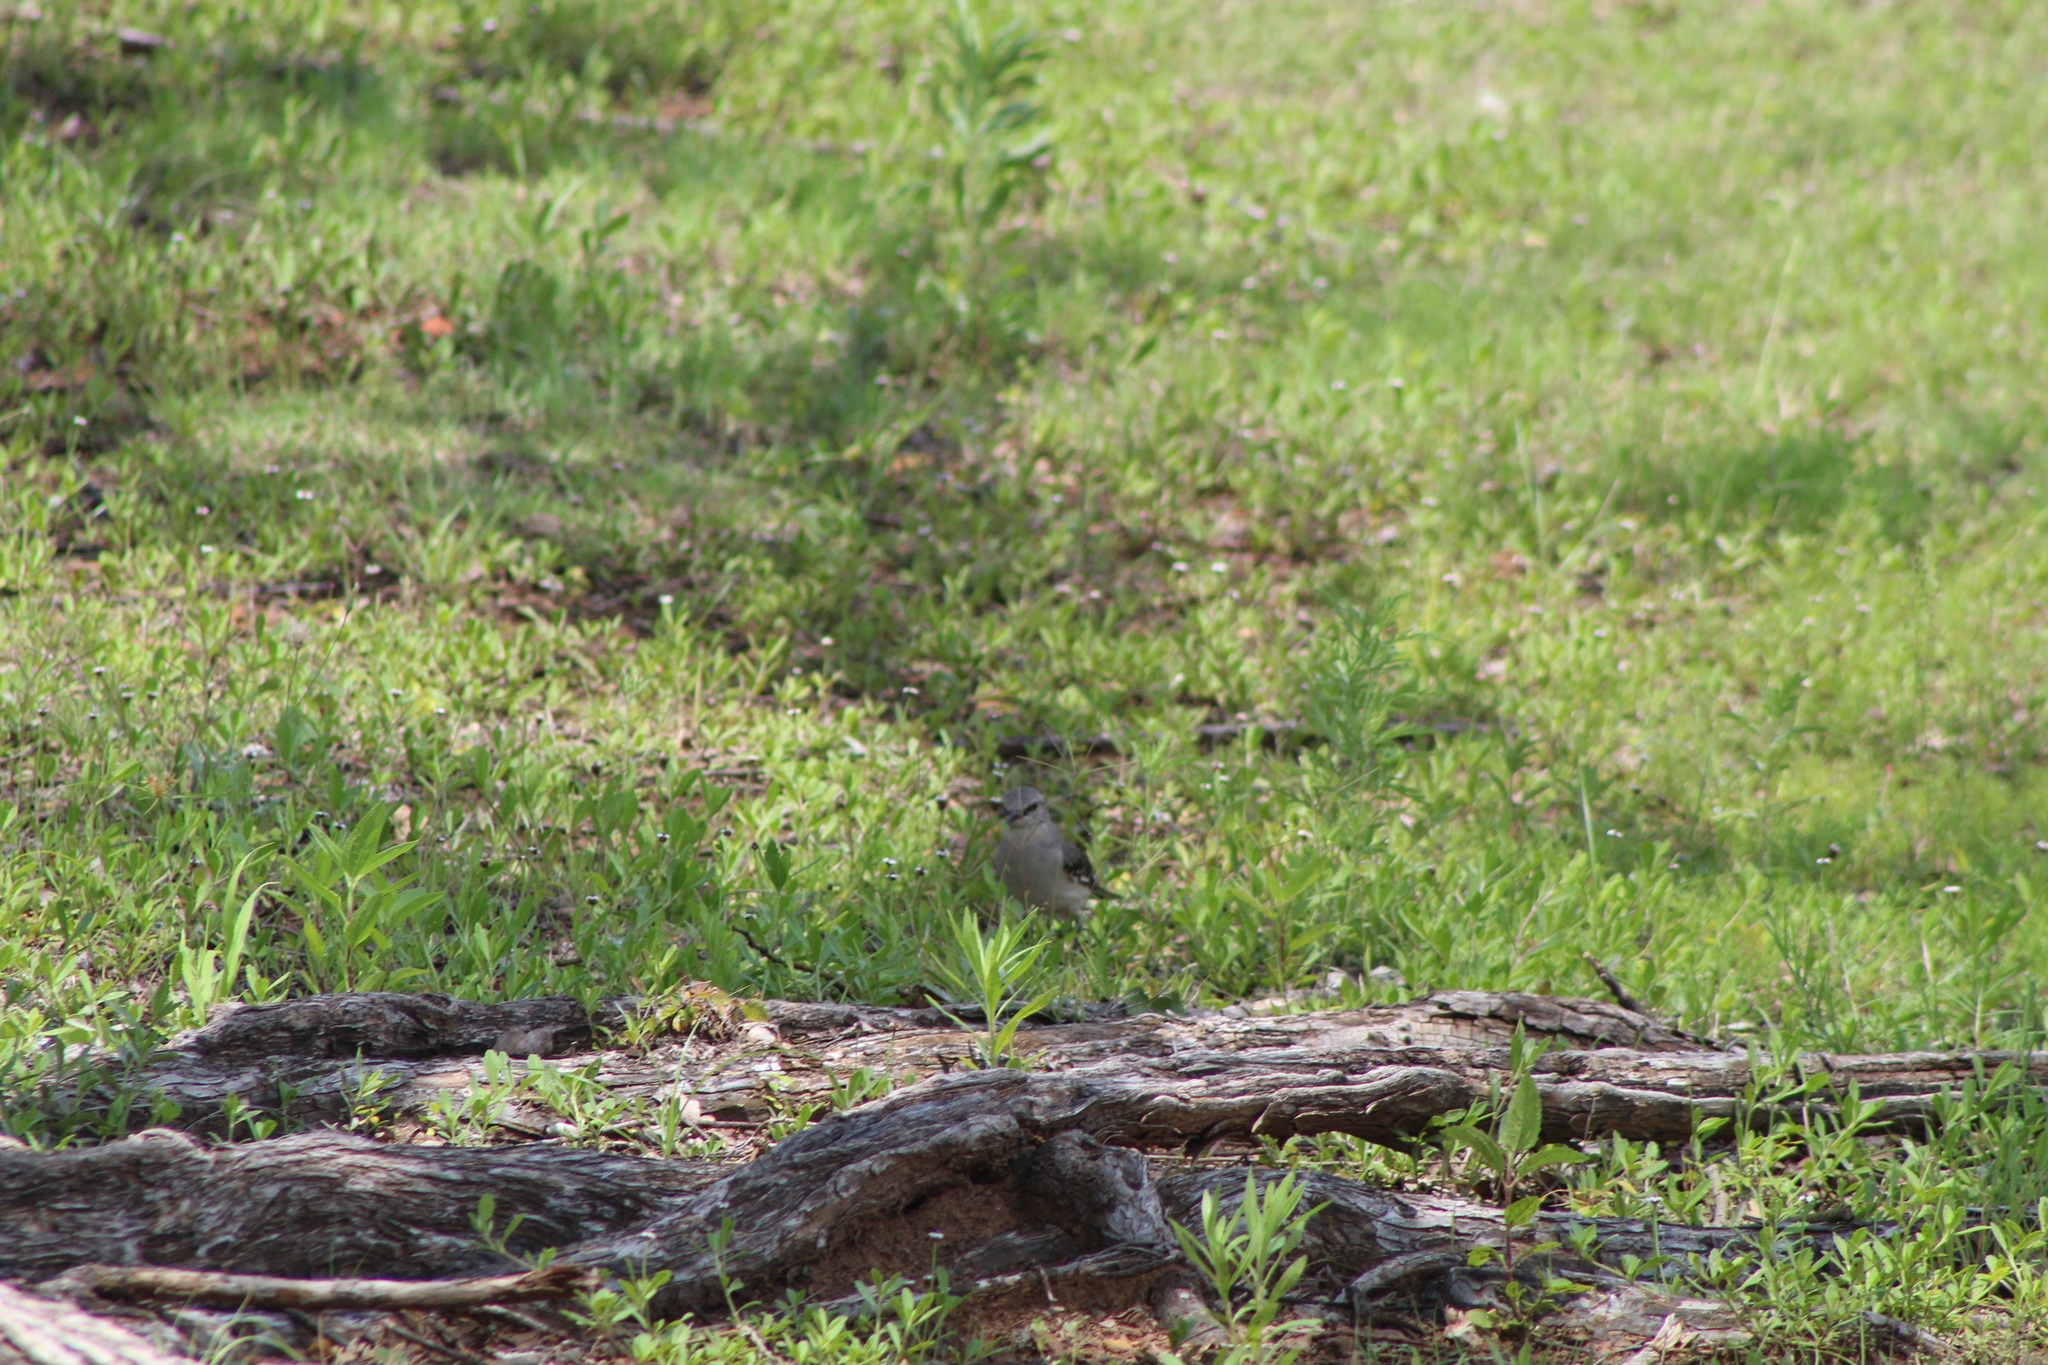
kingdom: Animalia
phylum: Chordata
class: Aves
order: Passeriformes
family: Mimidae
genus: Mimus
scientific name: Mimus polyglottos
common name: Northern mockingbird
